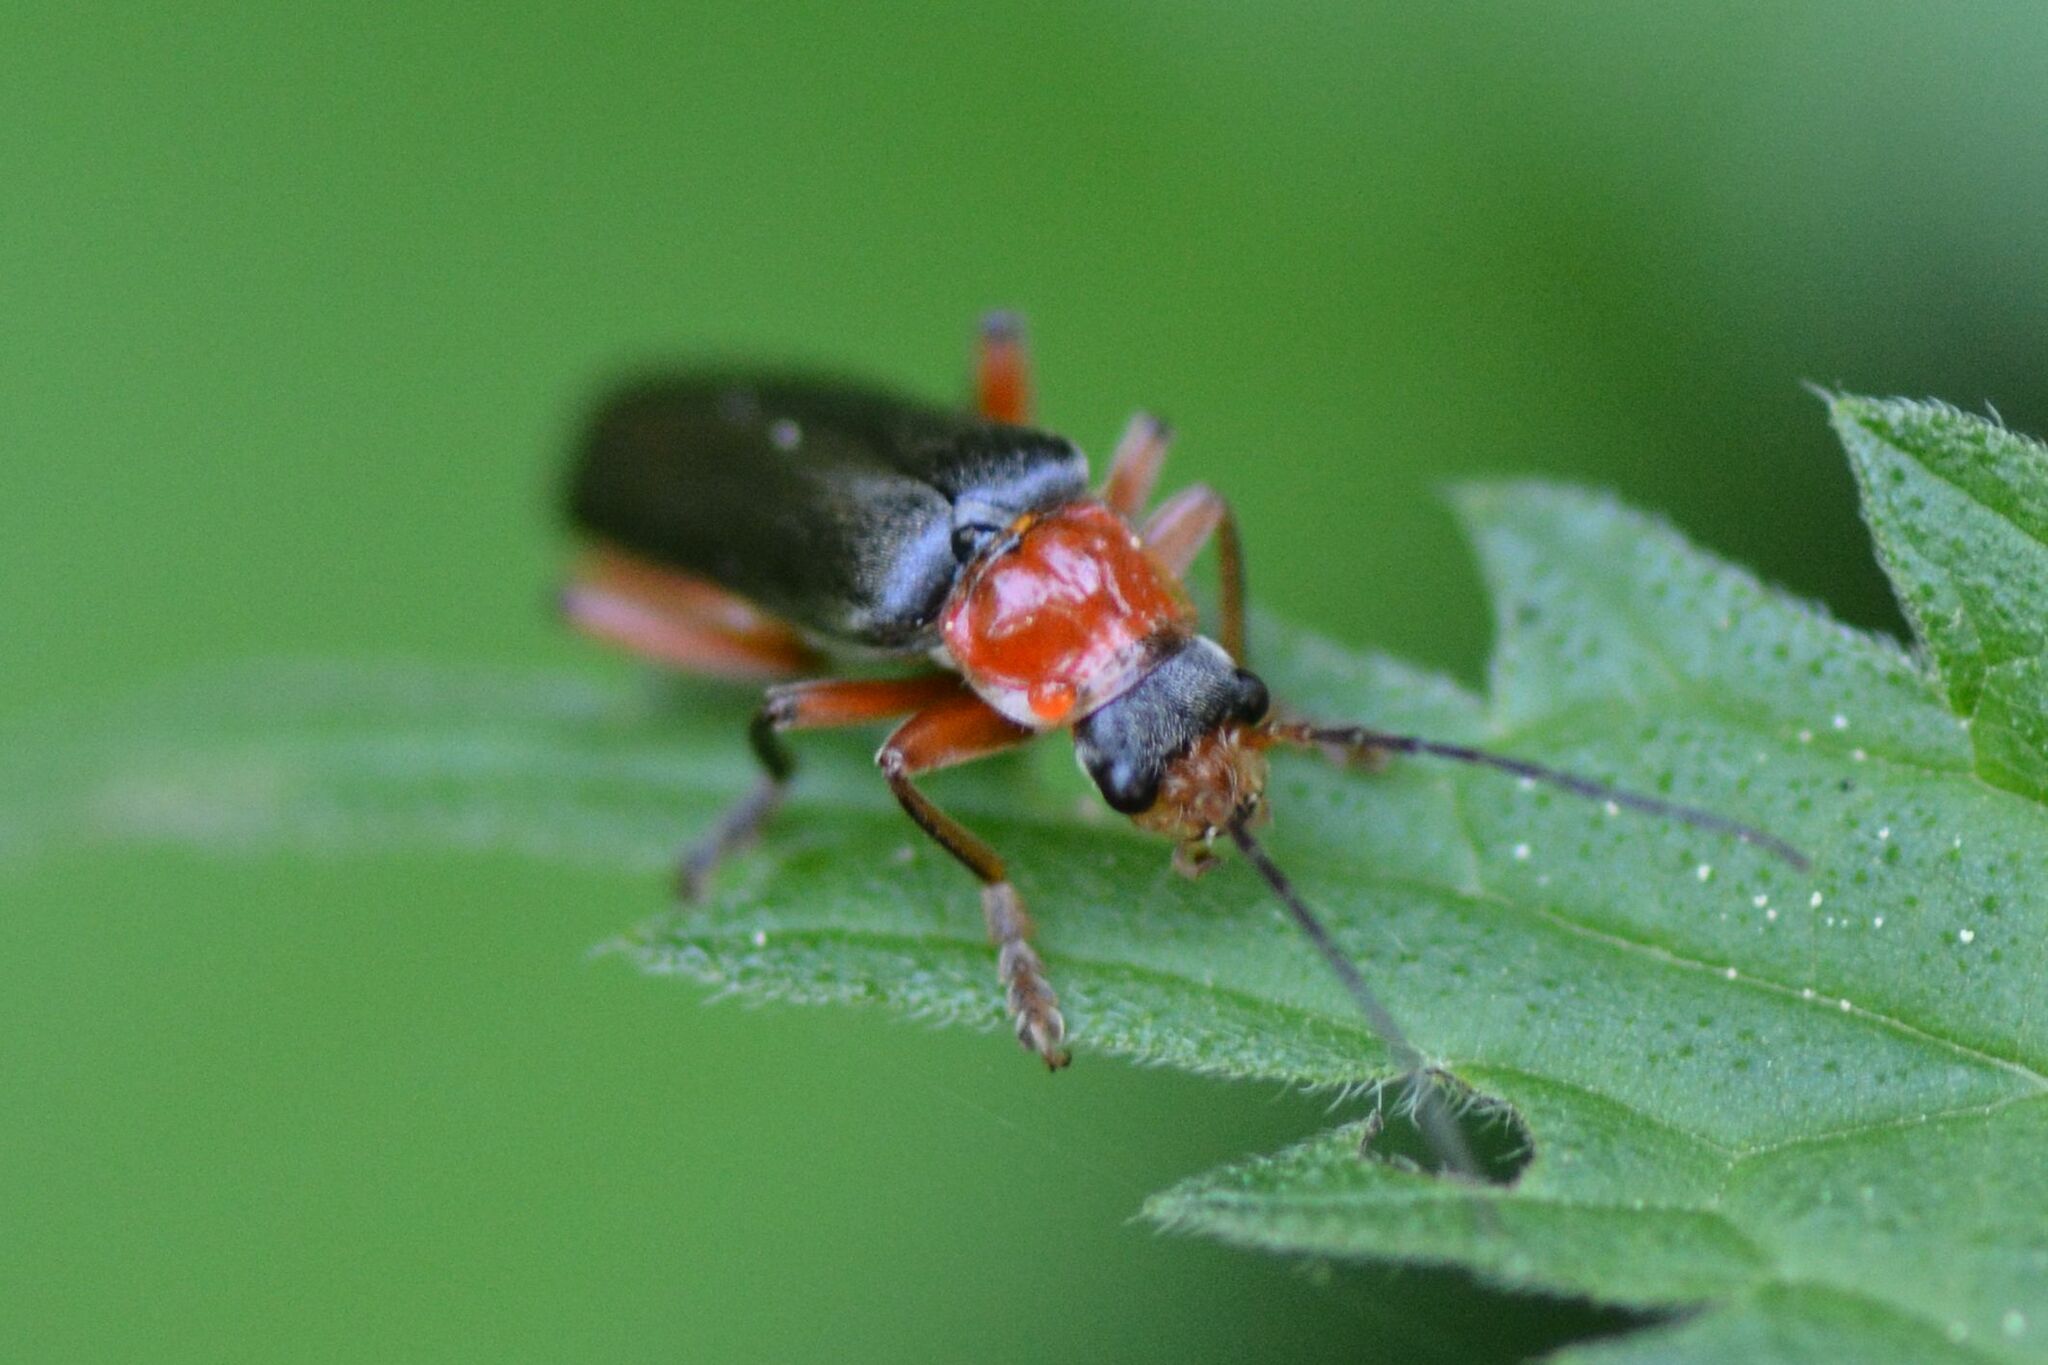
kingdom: Animalia
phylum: Arthropoda
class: Insecta
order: Coleoptera
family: Cantharidae
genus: Cantharis
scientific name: Cantharis pellucida
